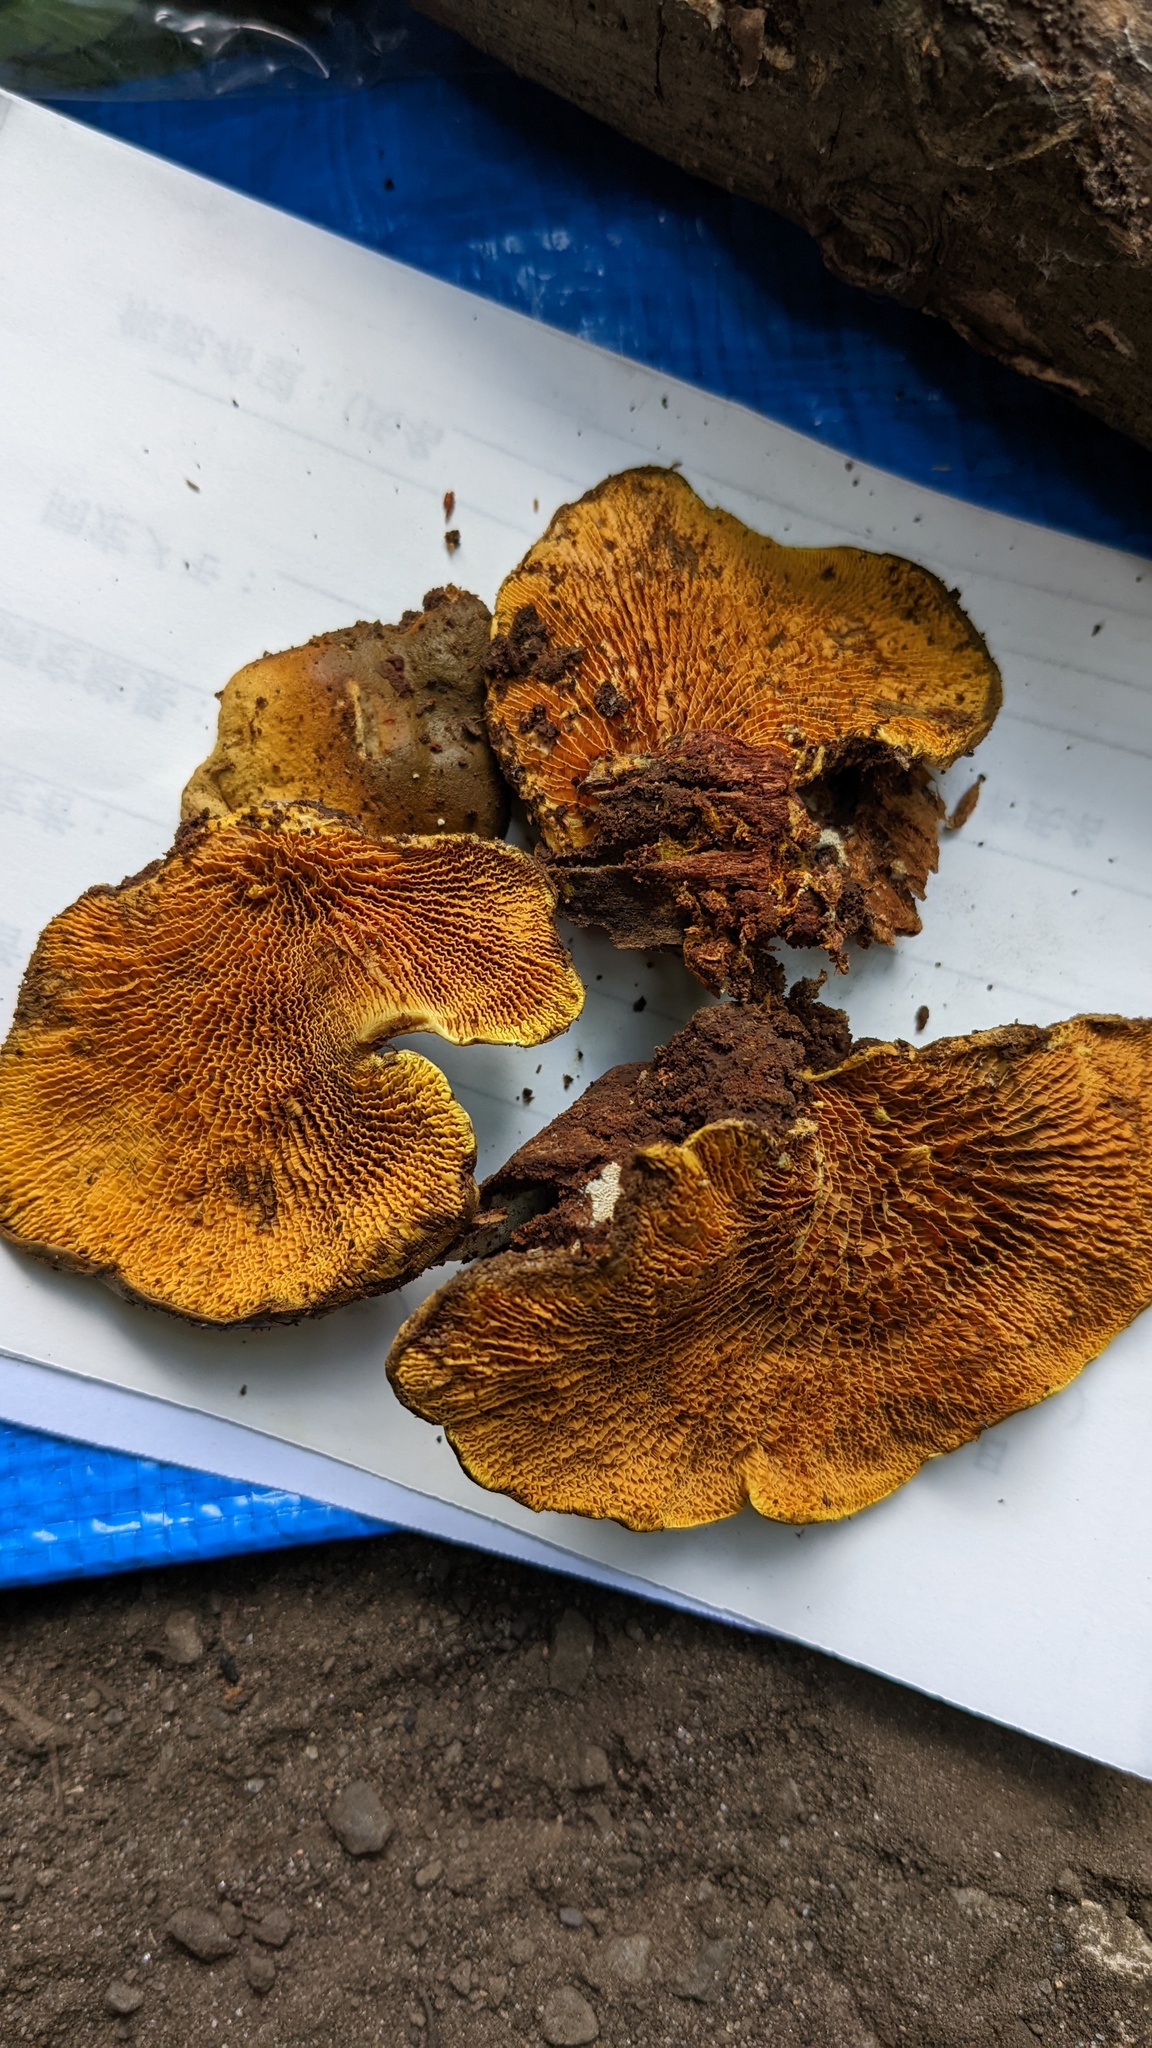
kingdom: Fungi
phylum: Basidiomycota
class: Agaricomycetes
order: Boletales
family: Paxillaceae
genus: Meiorganum
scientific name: Meiorganum curtisii
